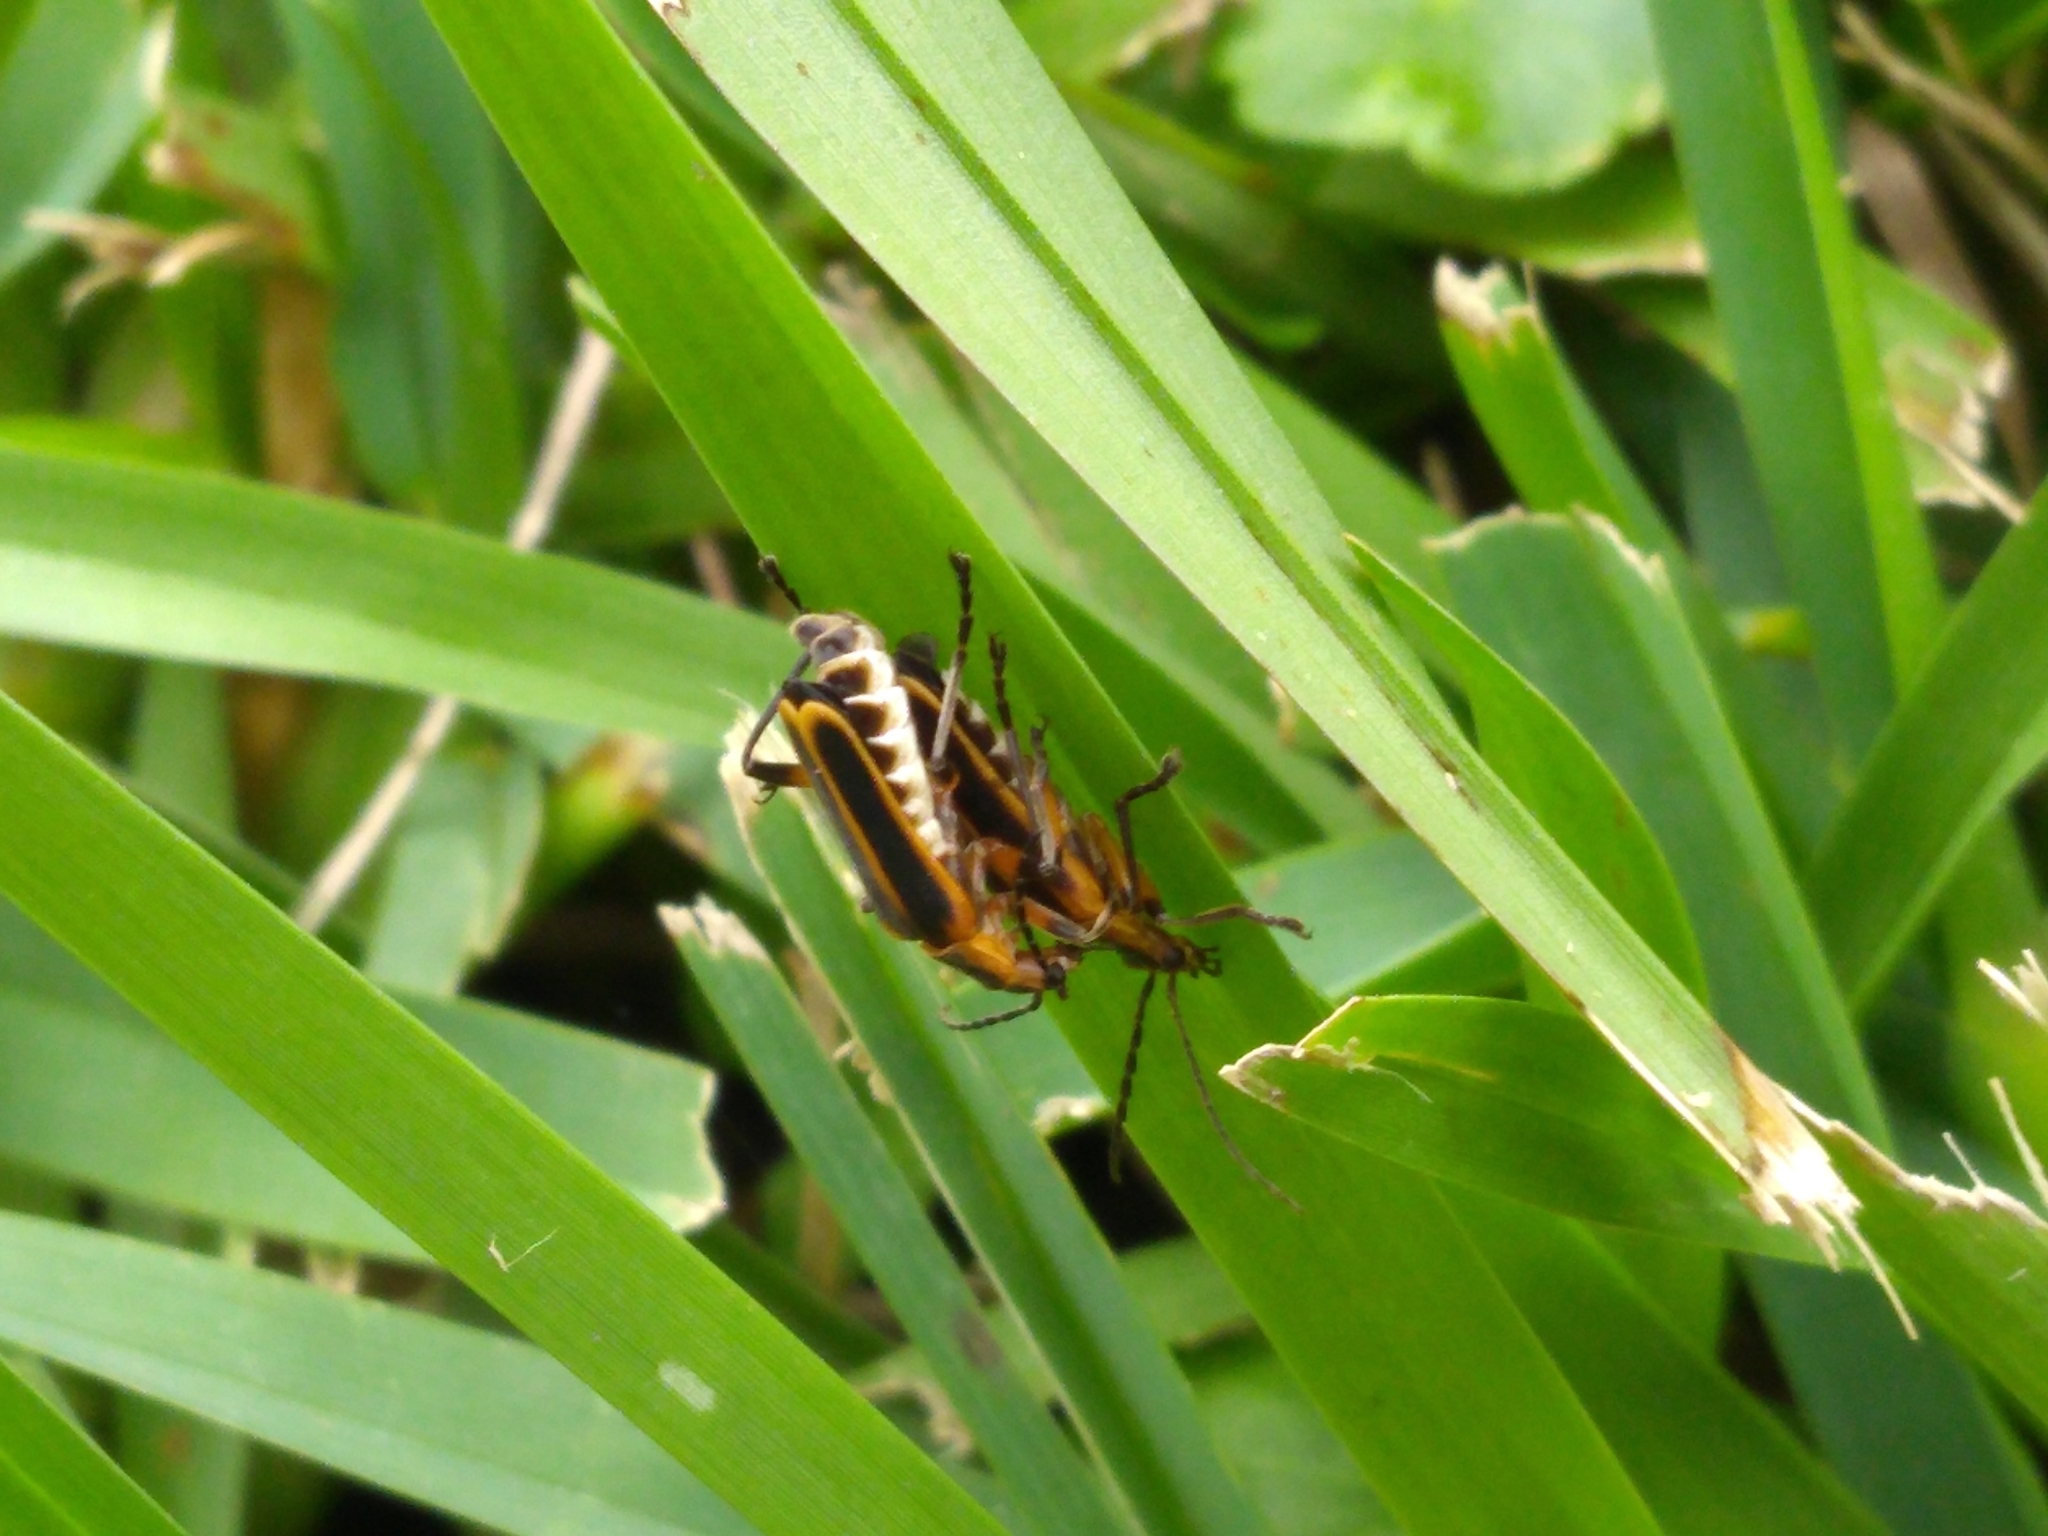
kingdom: Animalia
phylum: Arthropoda
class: Insecta
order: Coleoptera
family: Cantharidae
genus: Chauliognathus
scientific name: Chauliognathus marginatus
